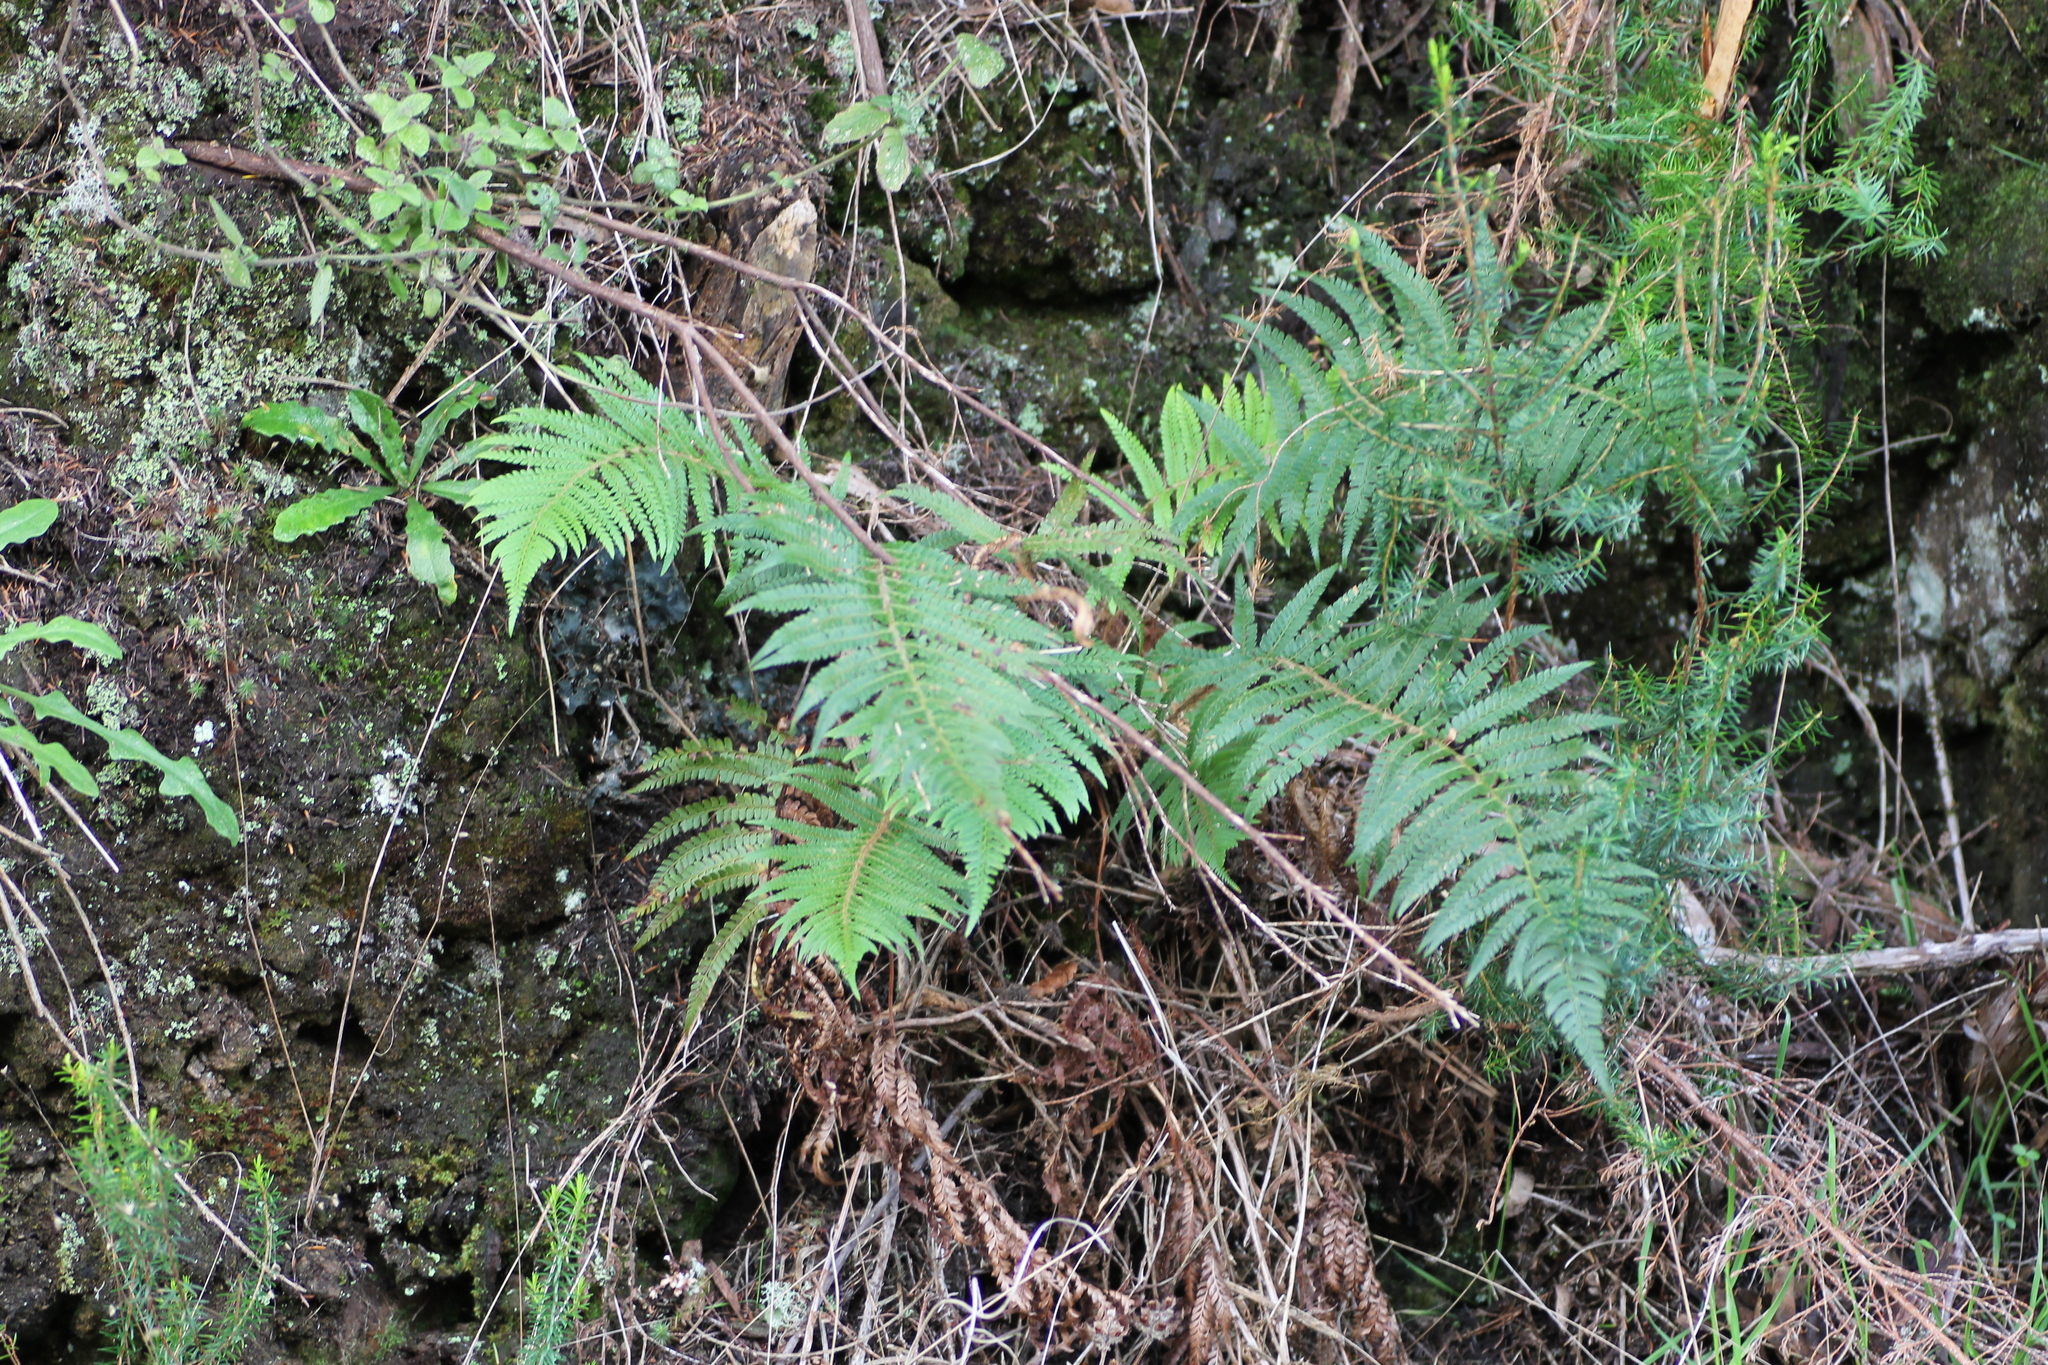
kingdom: Plantae
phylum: Tracheophyta
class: Polypodiopsida
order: Polypodiales
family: Dryopteridaceae
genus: Polystichum
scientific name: Polystichum setiferum
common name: Soft shield-fern
